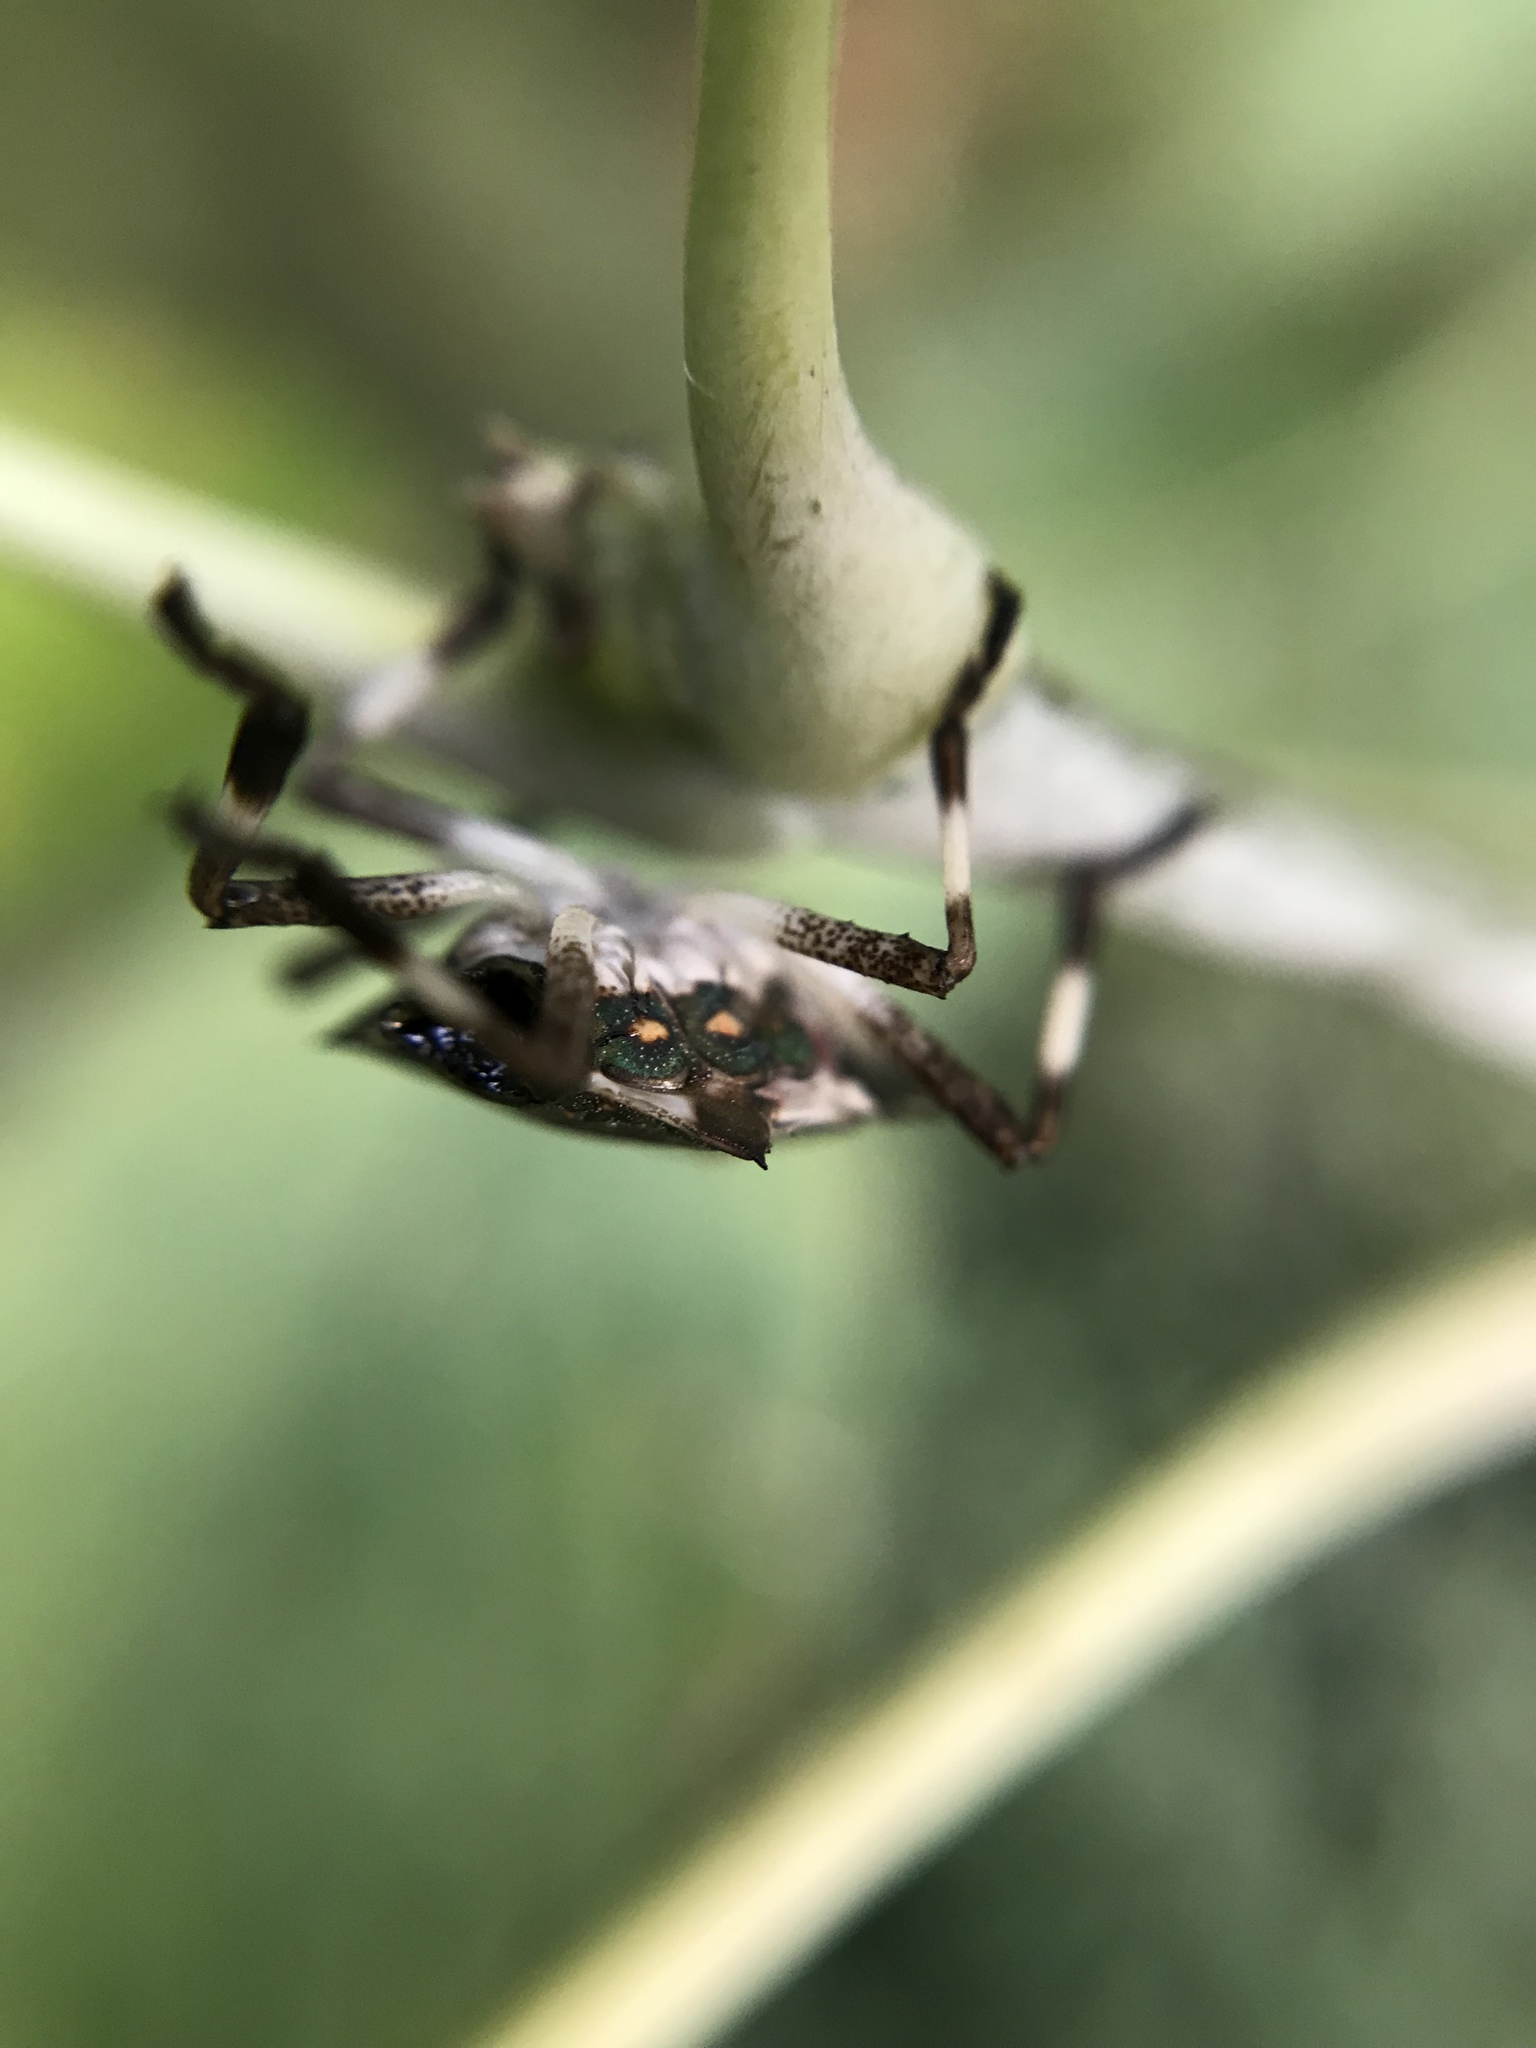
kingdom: Animalia
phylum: Arthropoda
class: Insecta
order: Hemiptera
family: Pentatomidae
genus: Halyomorpha
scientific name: Halyomorpha halys
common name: Brown marmorated stink bug
